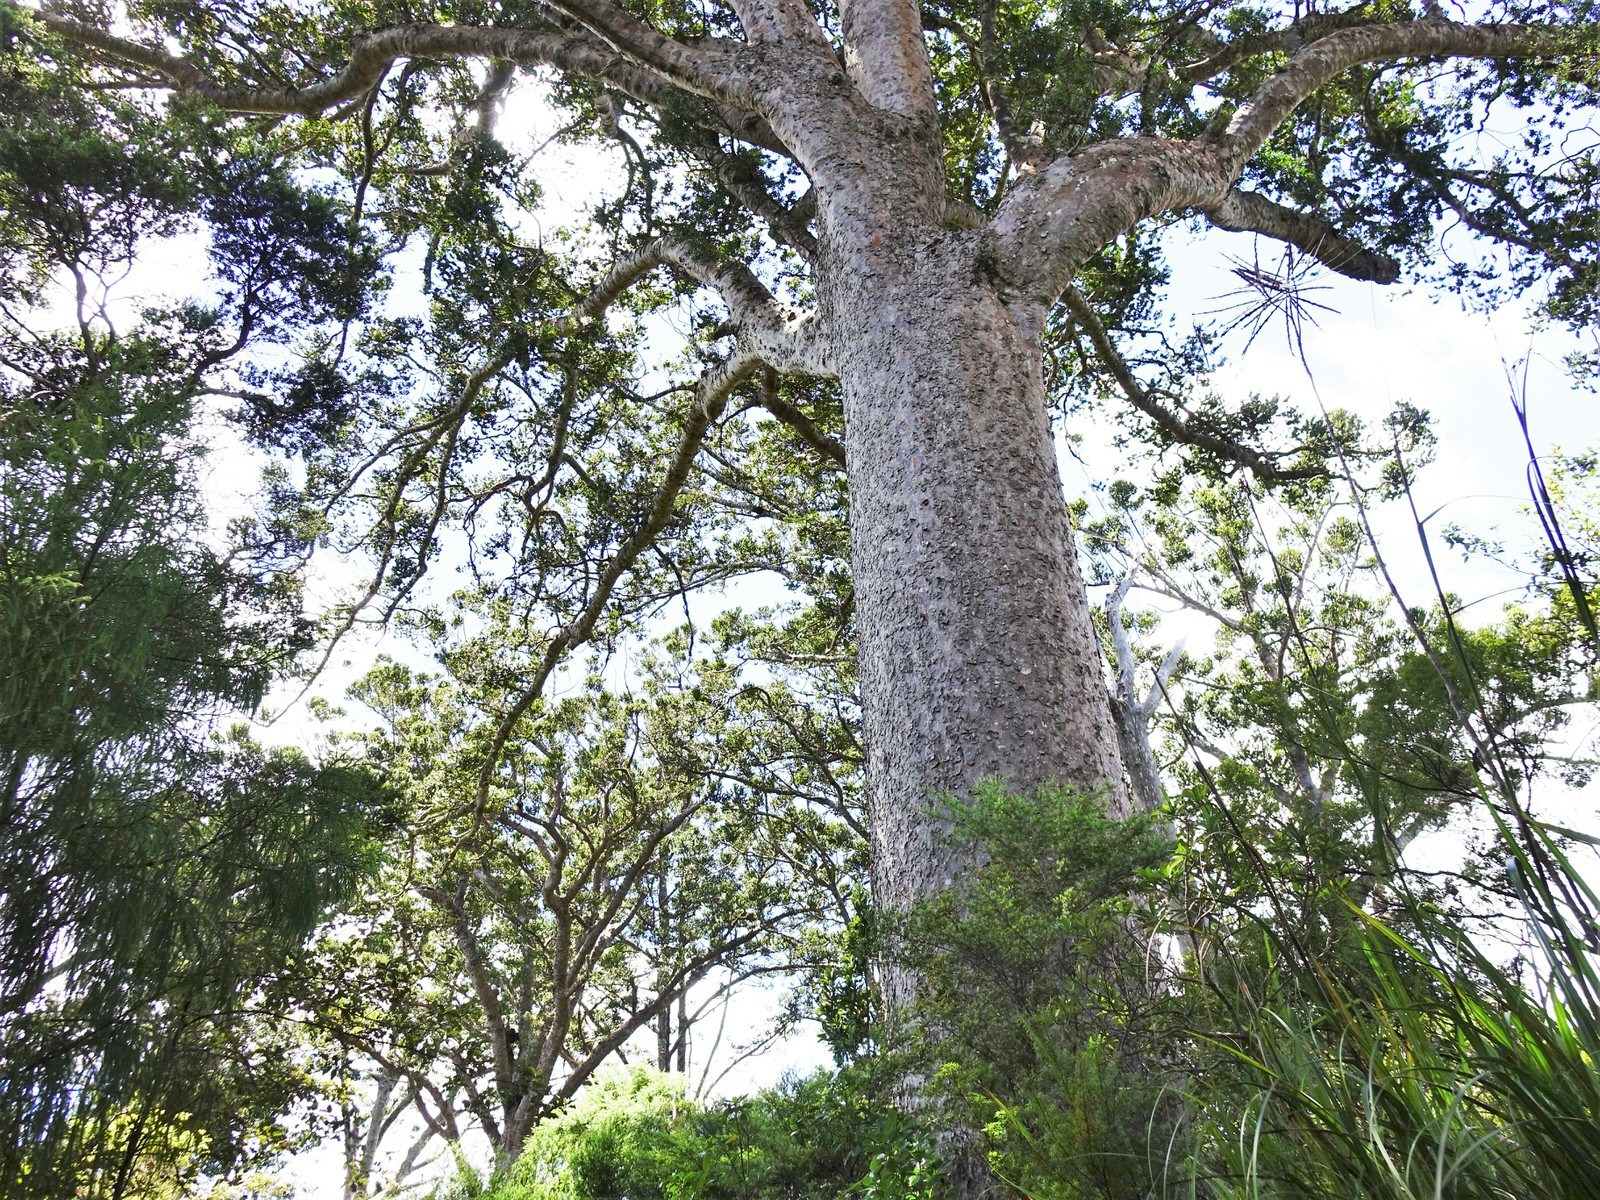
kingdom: Plantae
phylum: Tracheophyta
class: Pinopsida
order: Pinales
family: Araucariaceae
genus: Agathis
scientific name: Agathis australis
